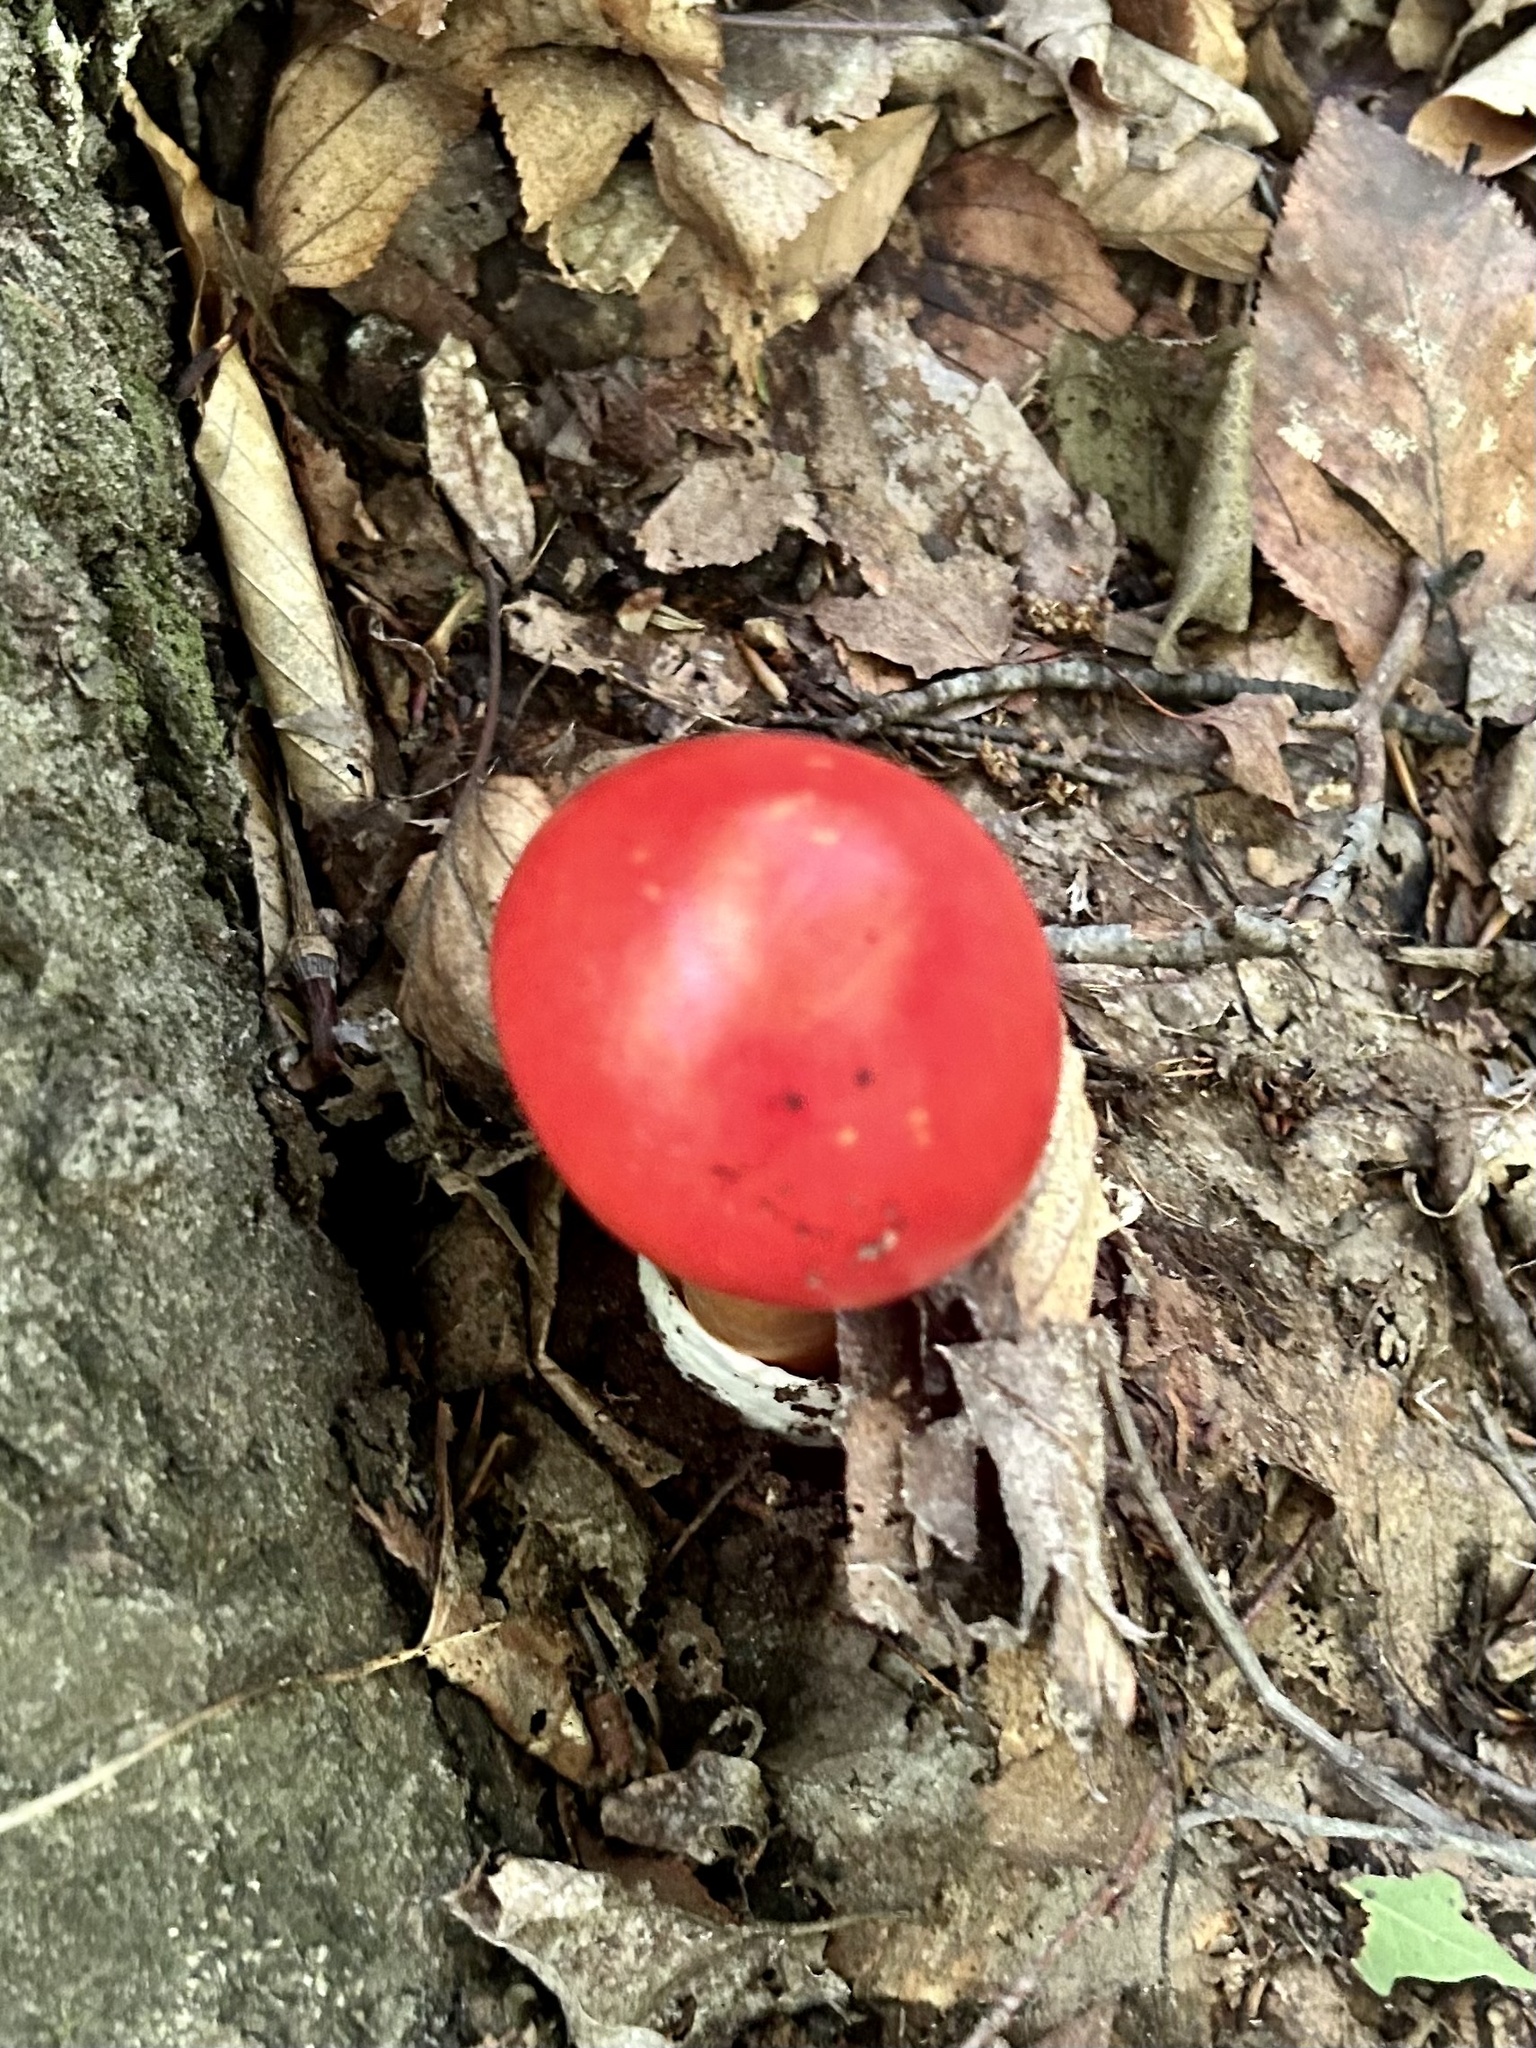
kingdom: Fungi
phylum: Basidiomycota
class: Agaricomycetes
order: Agaricales
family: Amanitaceae
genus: Amanita
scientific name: Amanita jacksonii
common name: Jackson's slender caesar
